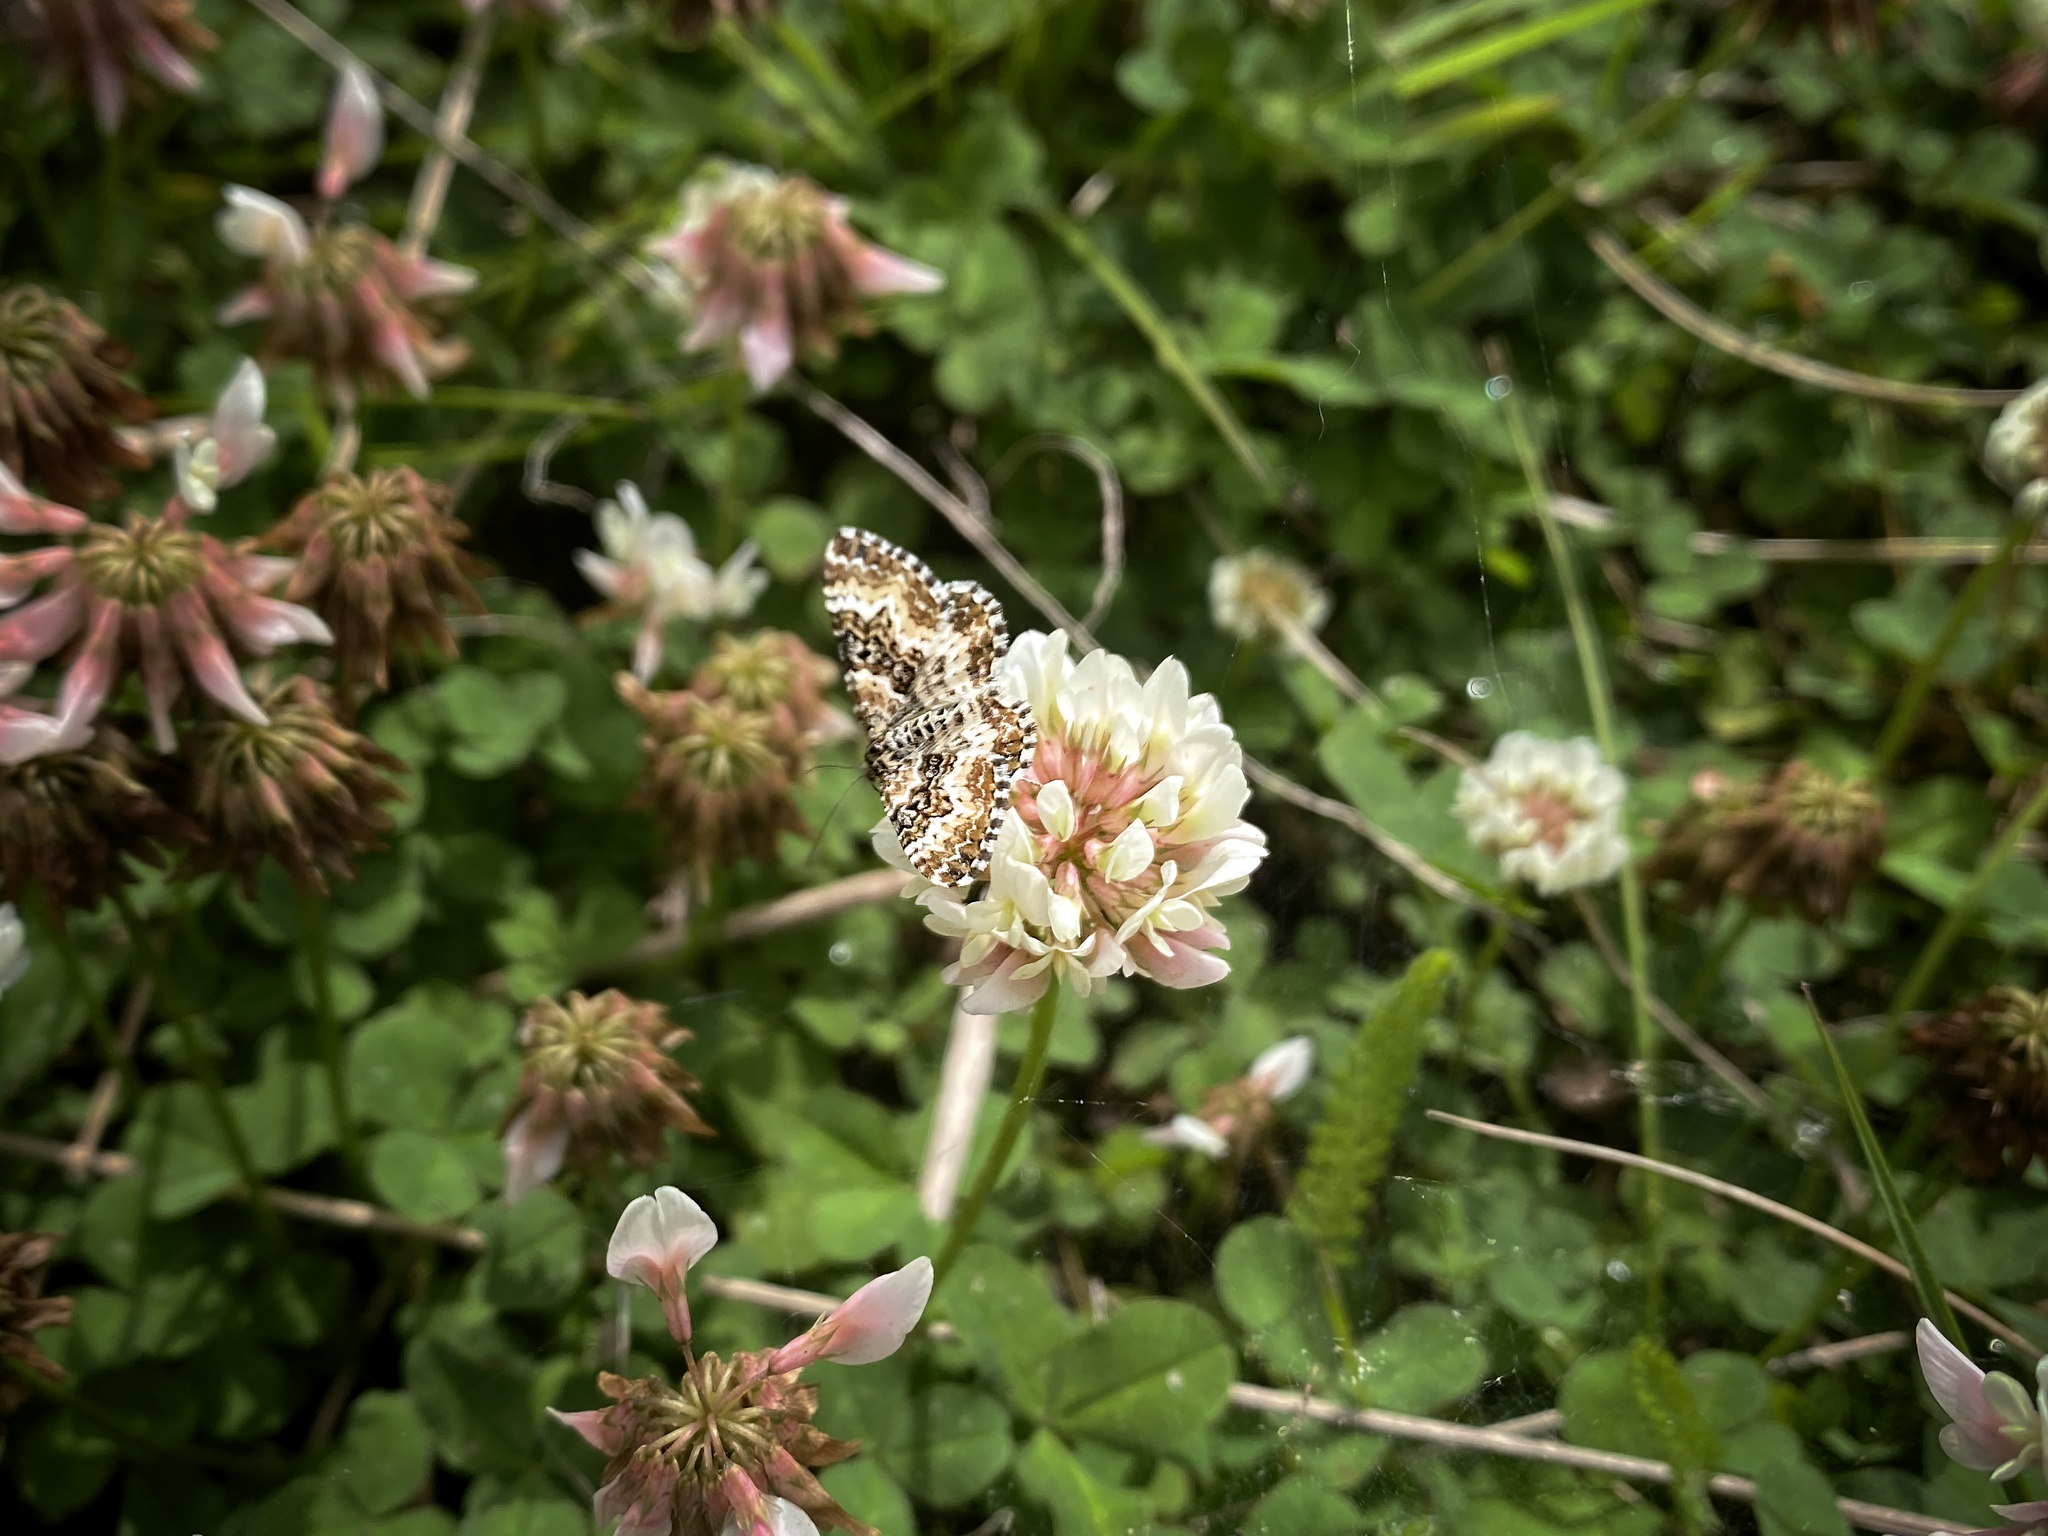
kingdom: Animalia
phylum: Arthropoda
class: Insecta
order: Lepidoptera
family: Geometridae
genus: Epirrhoe
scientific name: Epirrhoe tristata
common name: Small argent & sable
